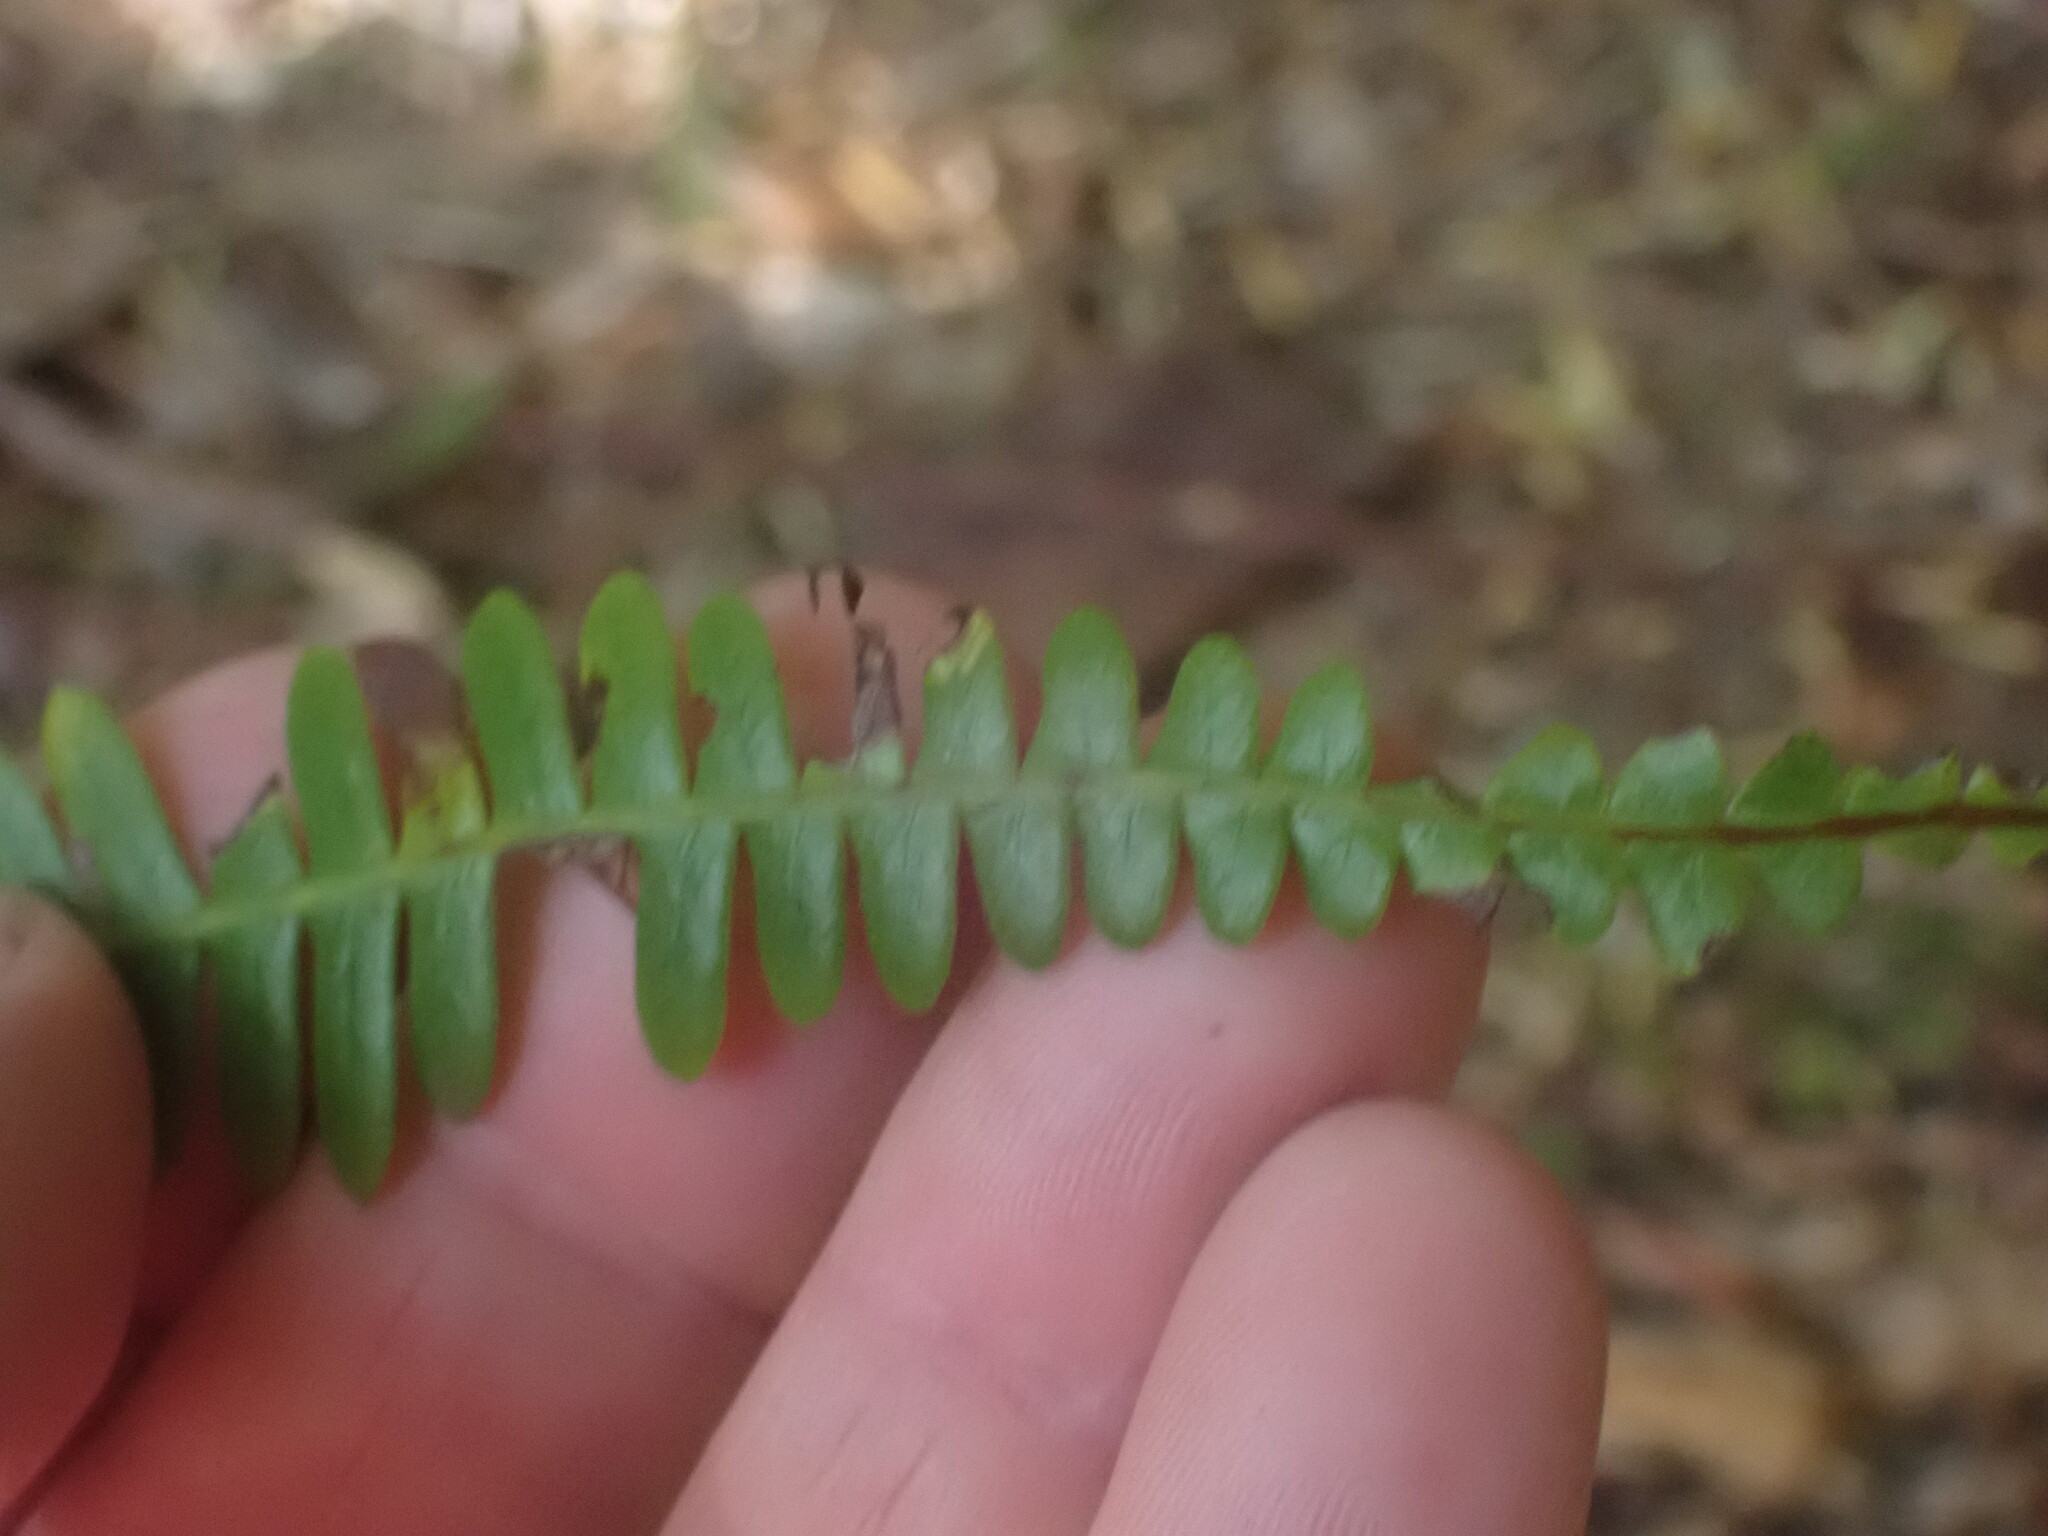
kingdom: Plantae
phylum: Tracheophyta
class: Polypodiopsida
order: Polypodiales
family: Blechnaceae
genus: Struthiopteris
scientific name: Struthiopteris spicant
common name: Deer fern
